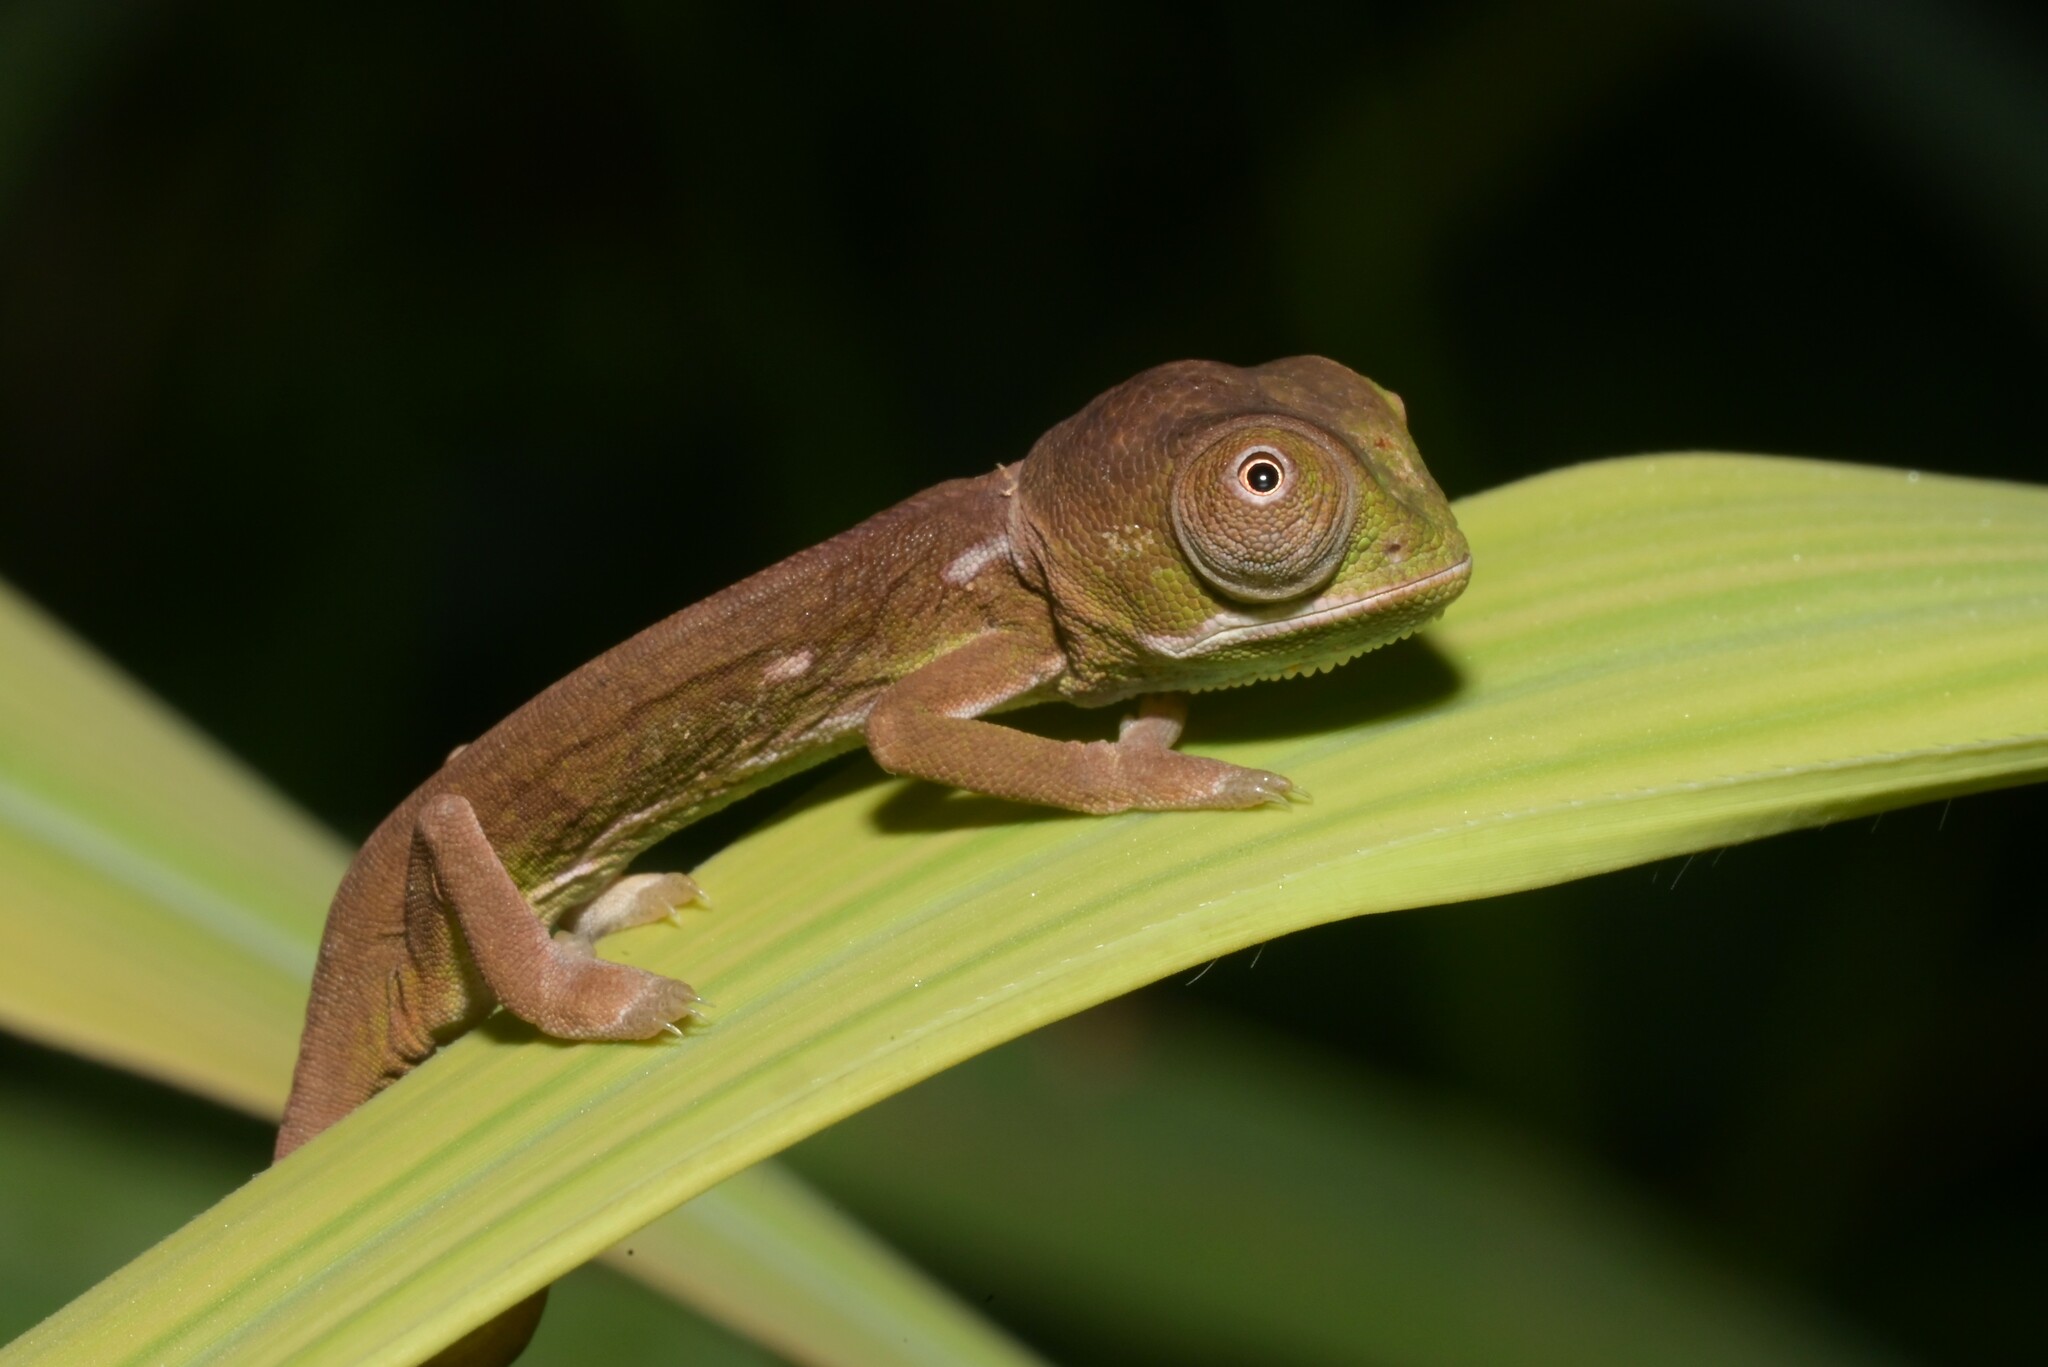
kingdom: Animalia
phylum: Chordata
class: Squamata
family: Chamaeleonidae
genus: Chamaeleo
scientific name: Chamaeleo dilepis
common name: Flapneck chameleon
